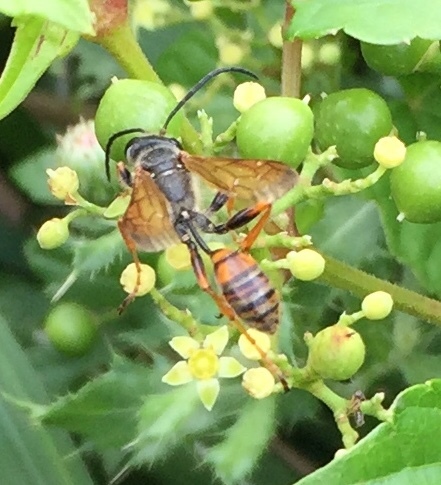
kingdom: Animalia
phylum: Arthropoda
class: Insecta
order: Hymenoptera
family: Sphecidae
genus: Isodontia
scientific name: Isodontia elegans
